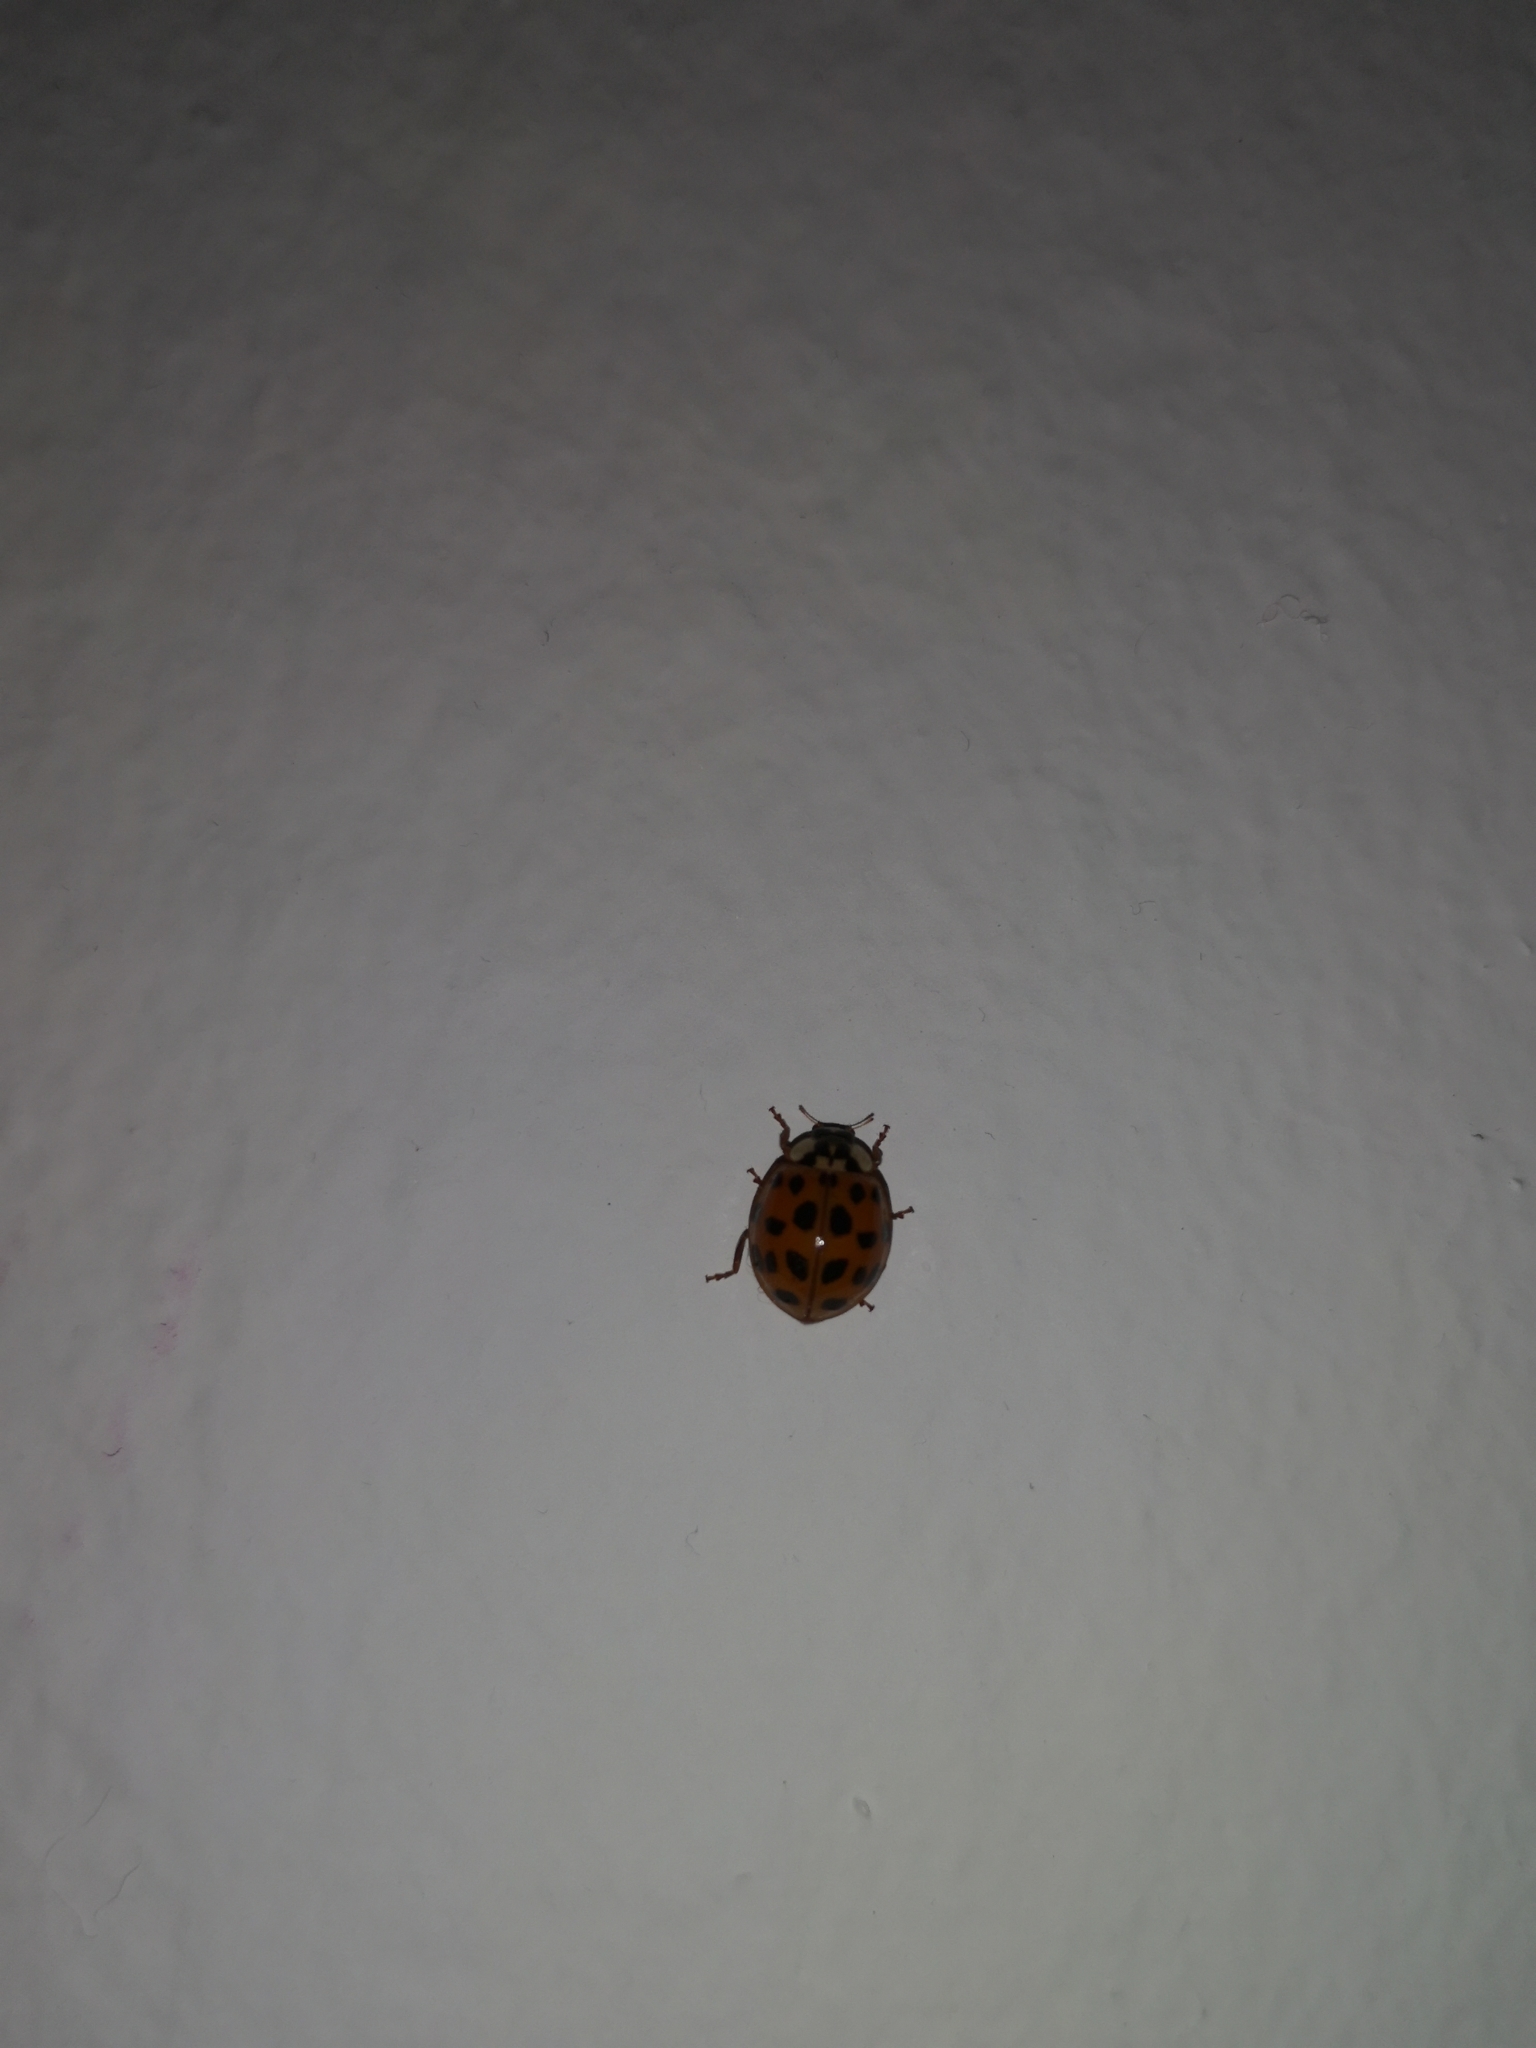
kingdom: Animalia
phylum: Arthropoda
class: Insecta
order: Coleoptera
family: Coccinellidae
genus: Harmonia
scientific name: Harmonia axyridis
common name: Harlequin ladybird
